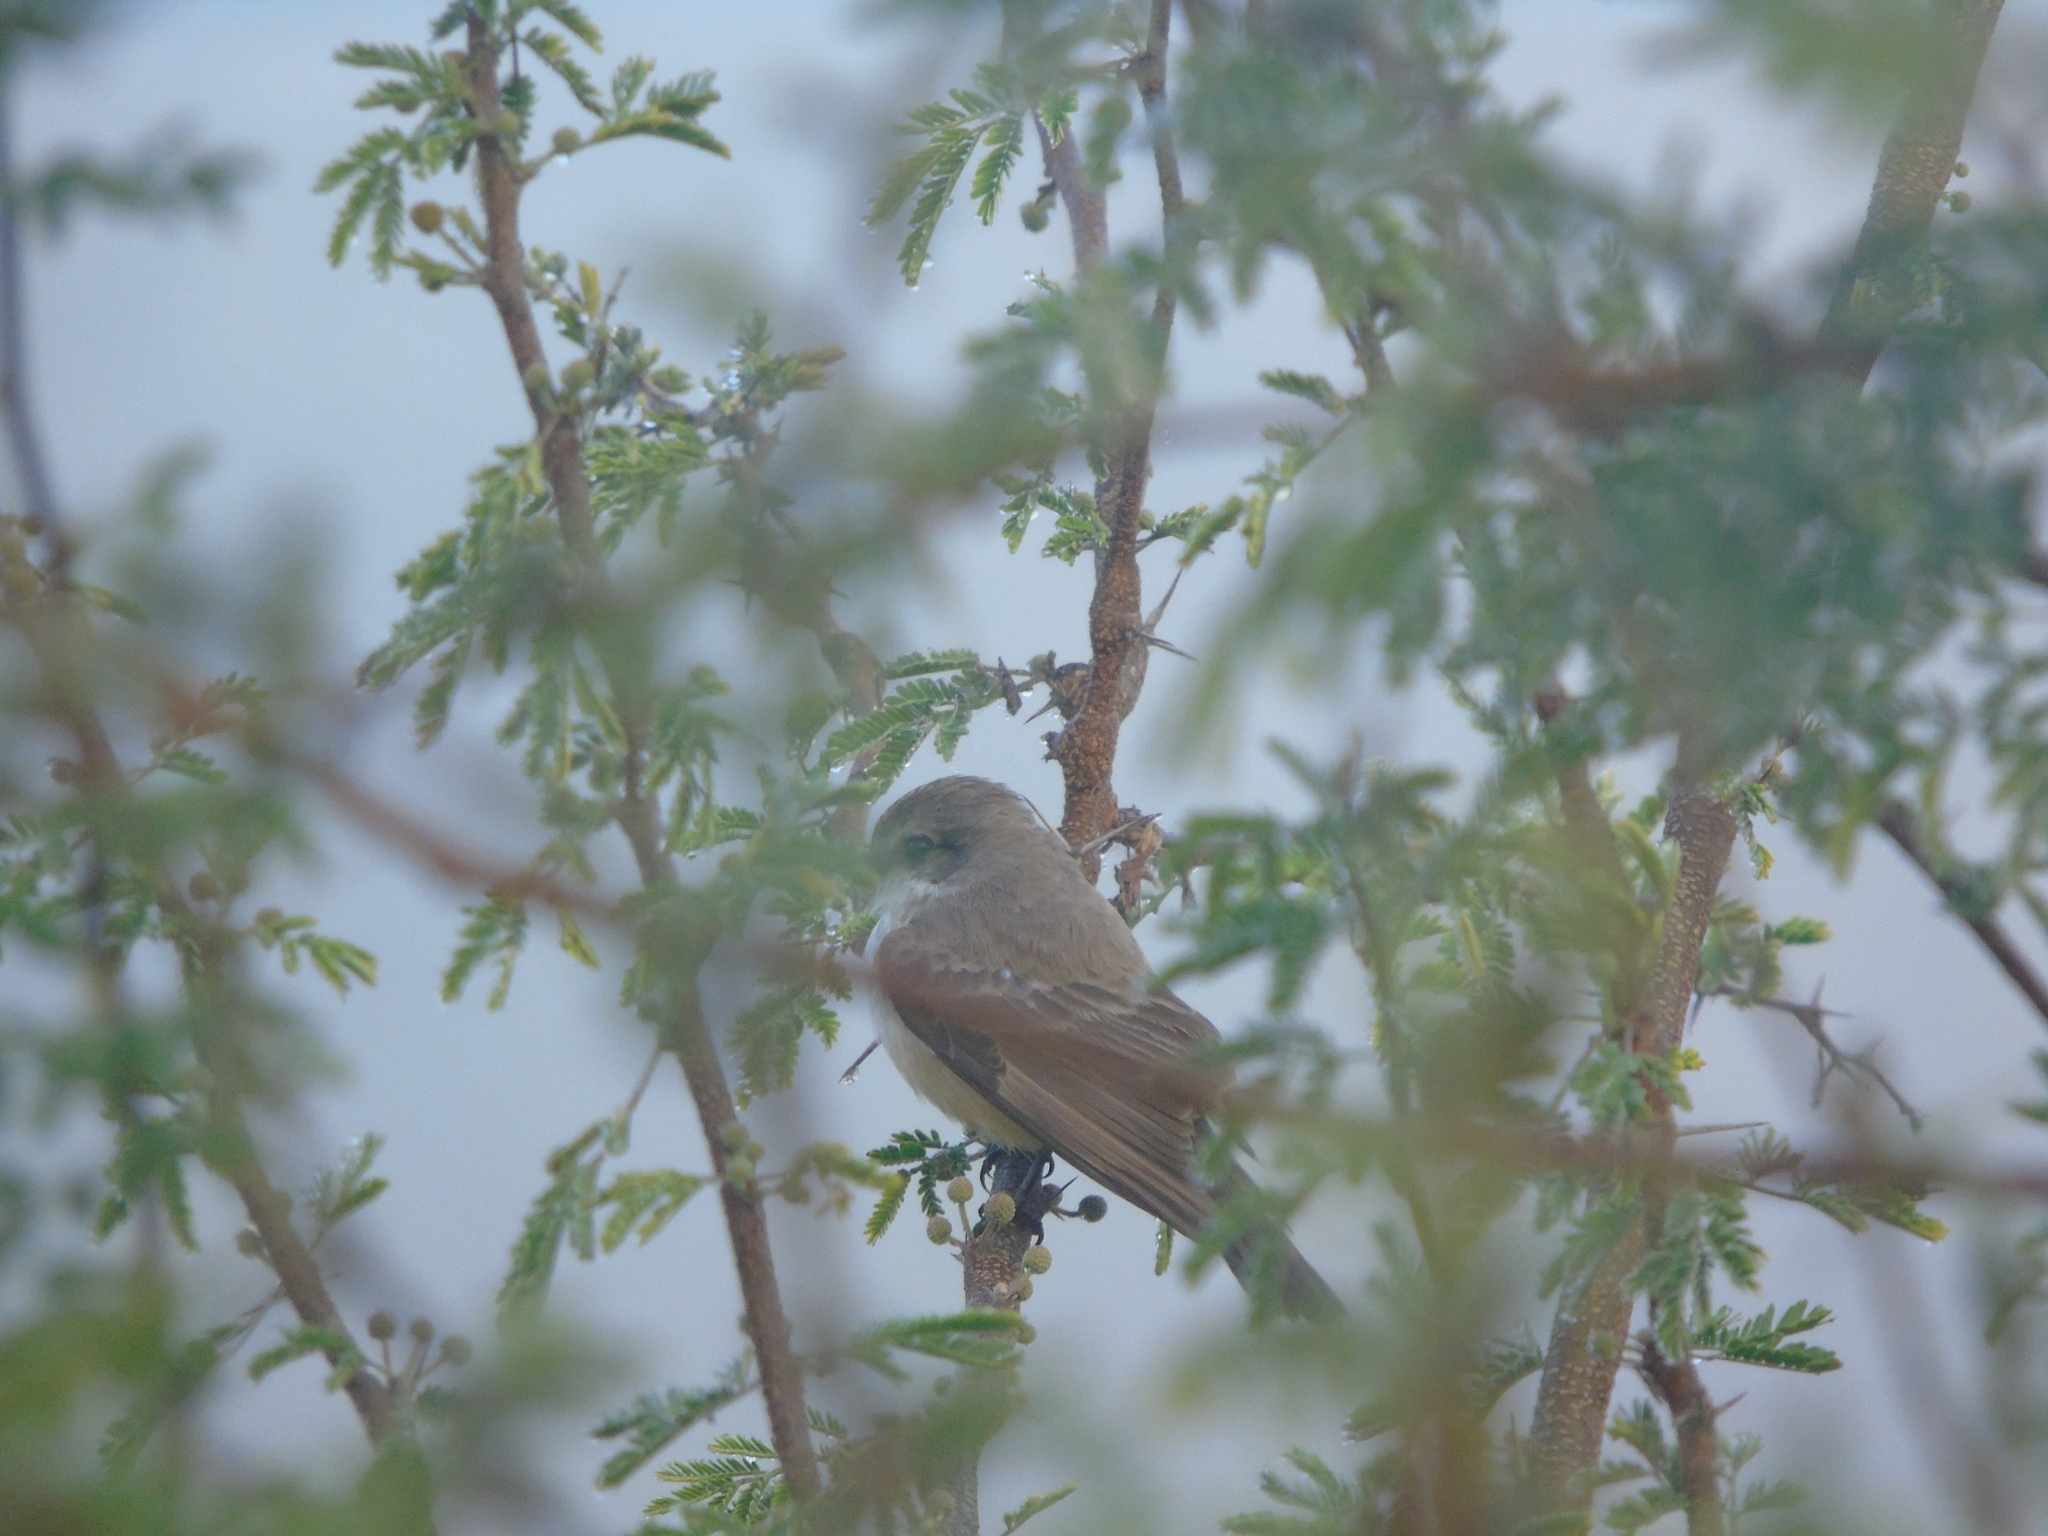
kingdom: Animalia
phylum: Chordata
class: Aves
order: Passeriformes
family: Tyrannidae
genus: Pyrocephalus
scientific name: Pyrocephalus rubinus
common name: Vermilion flycatcher
